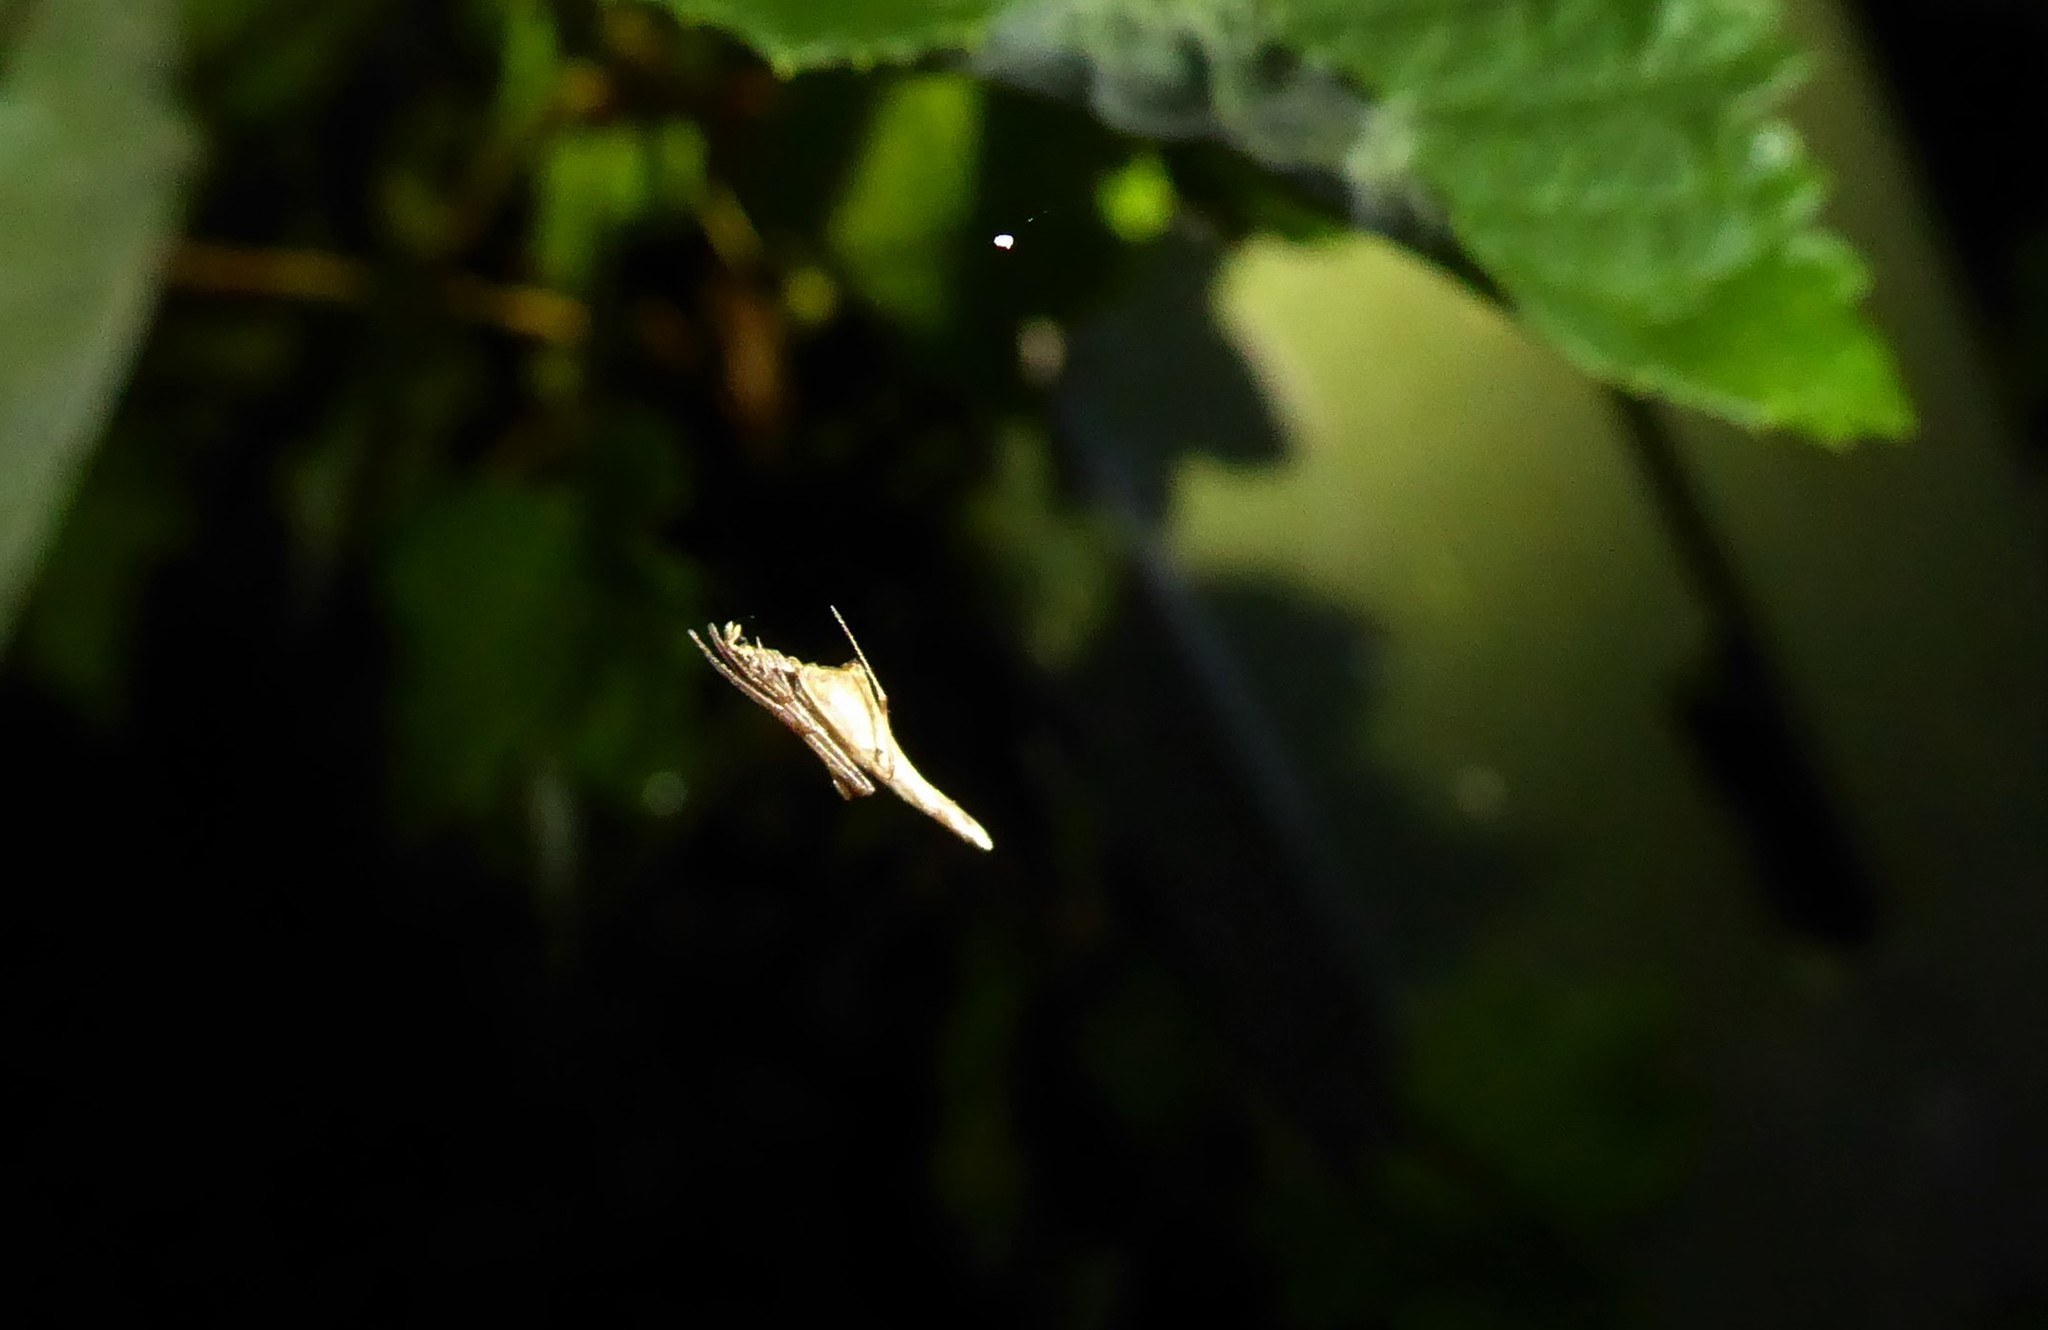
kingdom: Animalia
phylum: Arthropoda
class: Arachnida
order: Araneae
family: Theridiidae
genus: Rhomphaea
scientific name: Rhomphaea urquharti
